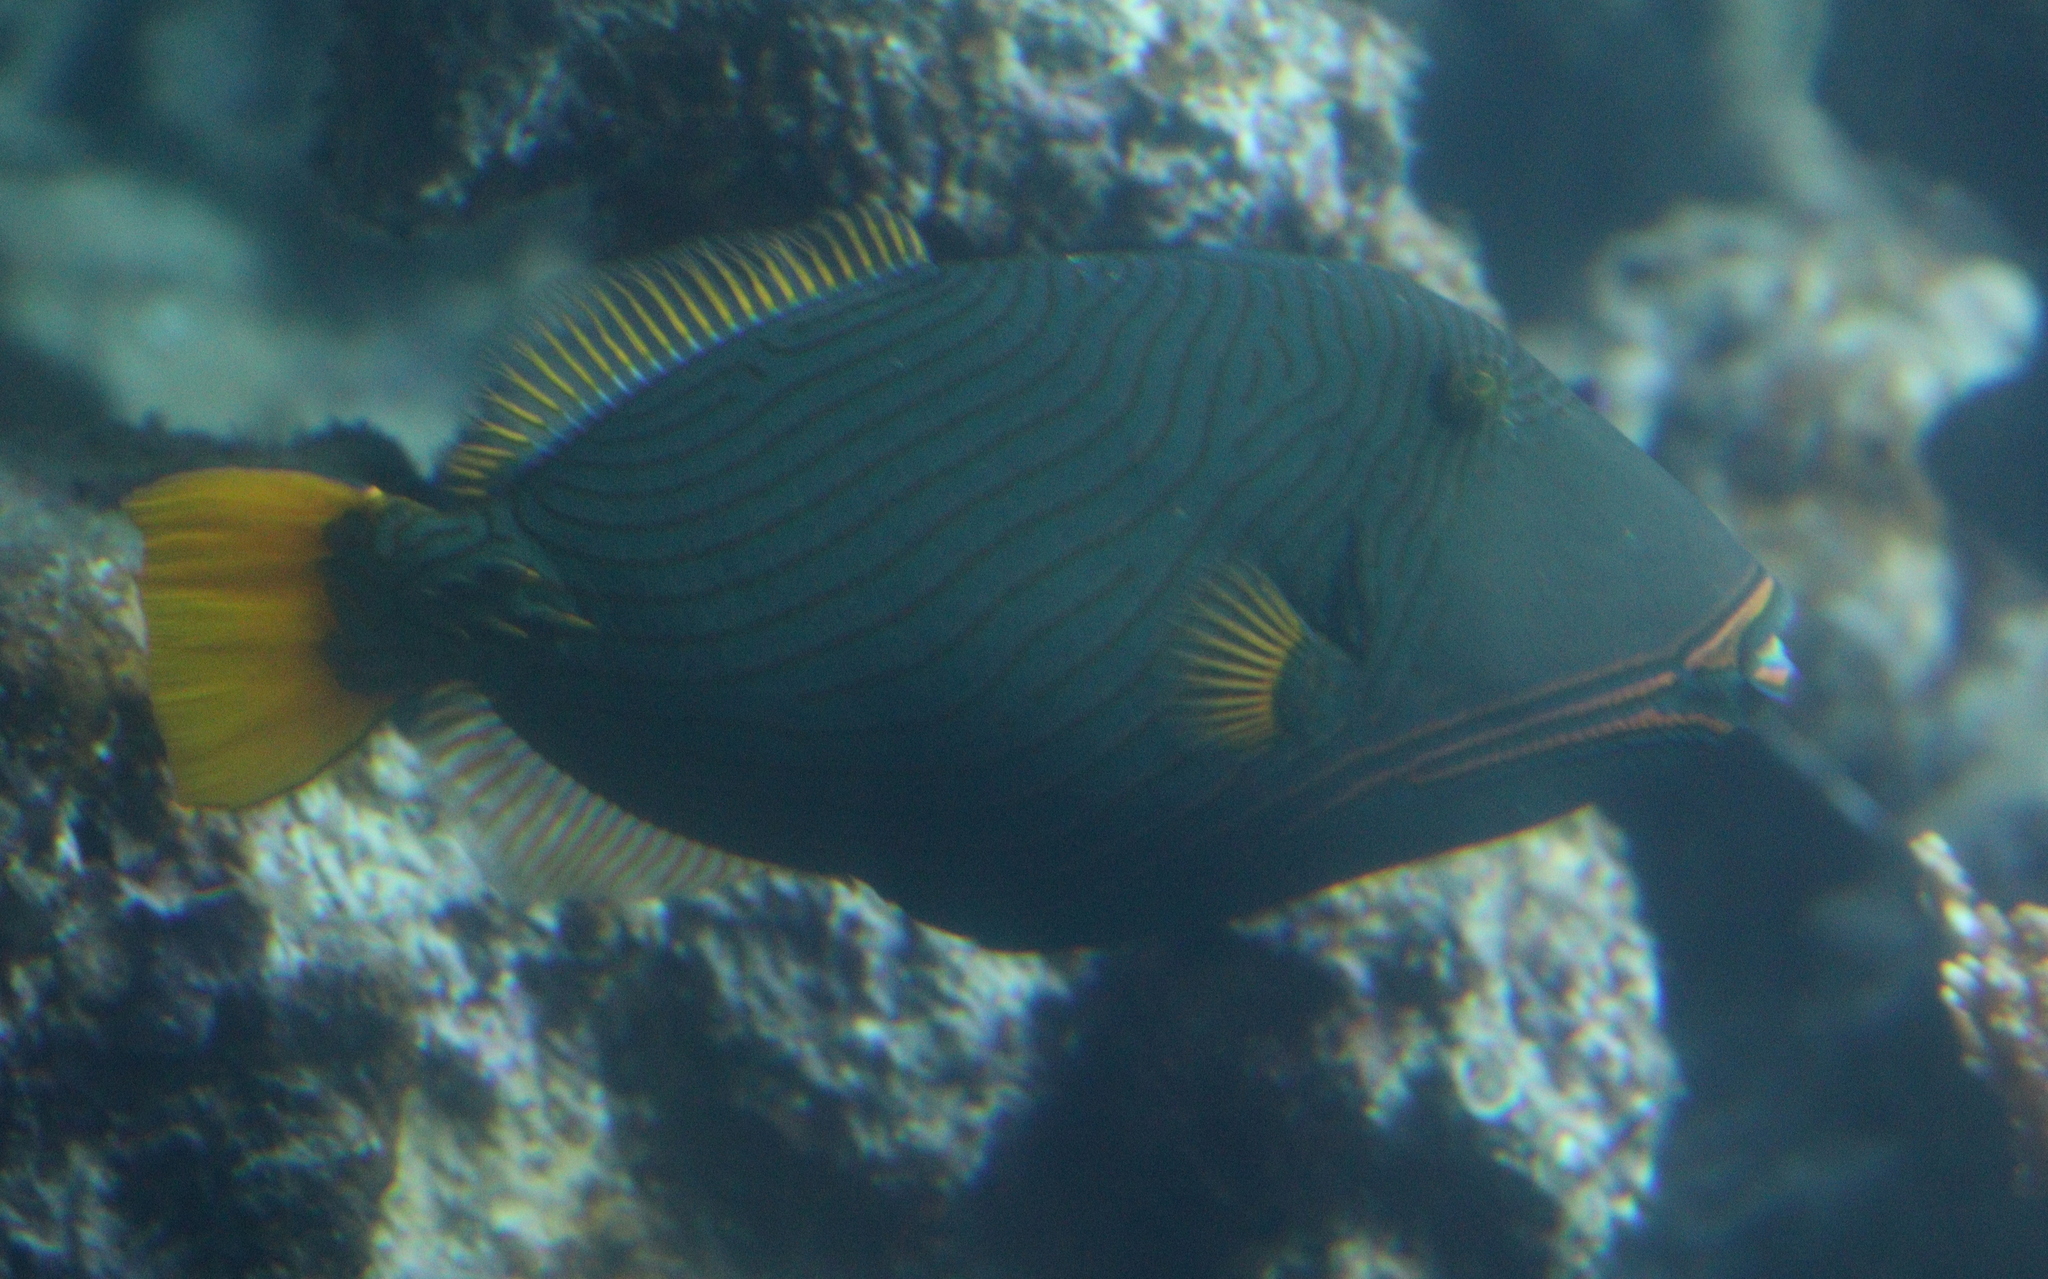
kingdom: Animalia
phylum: Chordata
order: Tetraodontiformes
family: Balistidae
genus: Balistapus
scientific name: Balistapus undulatus
